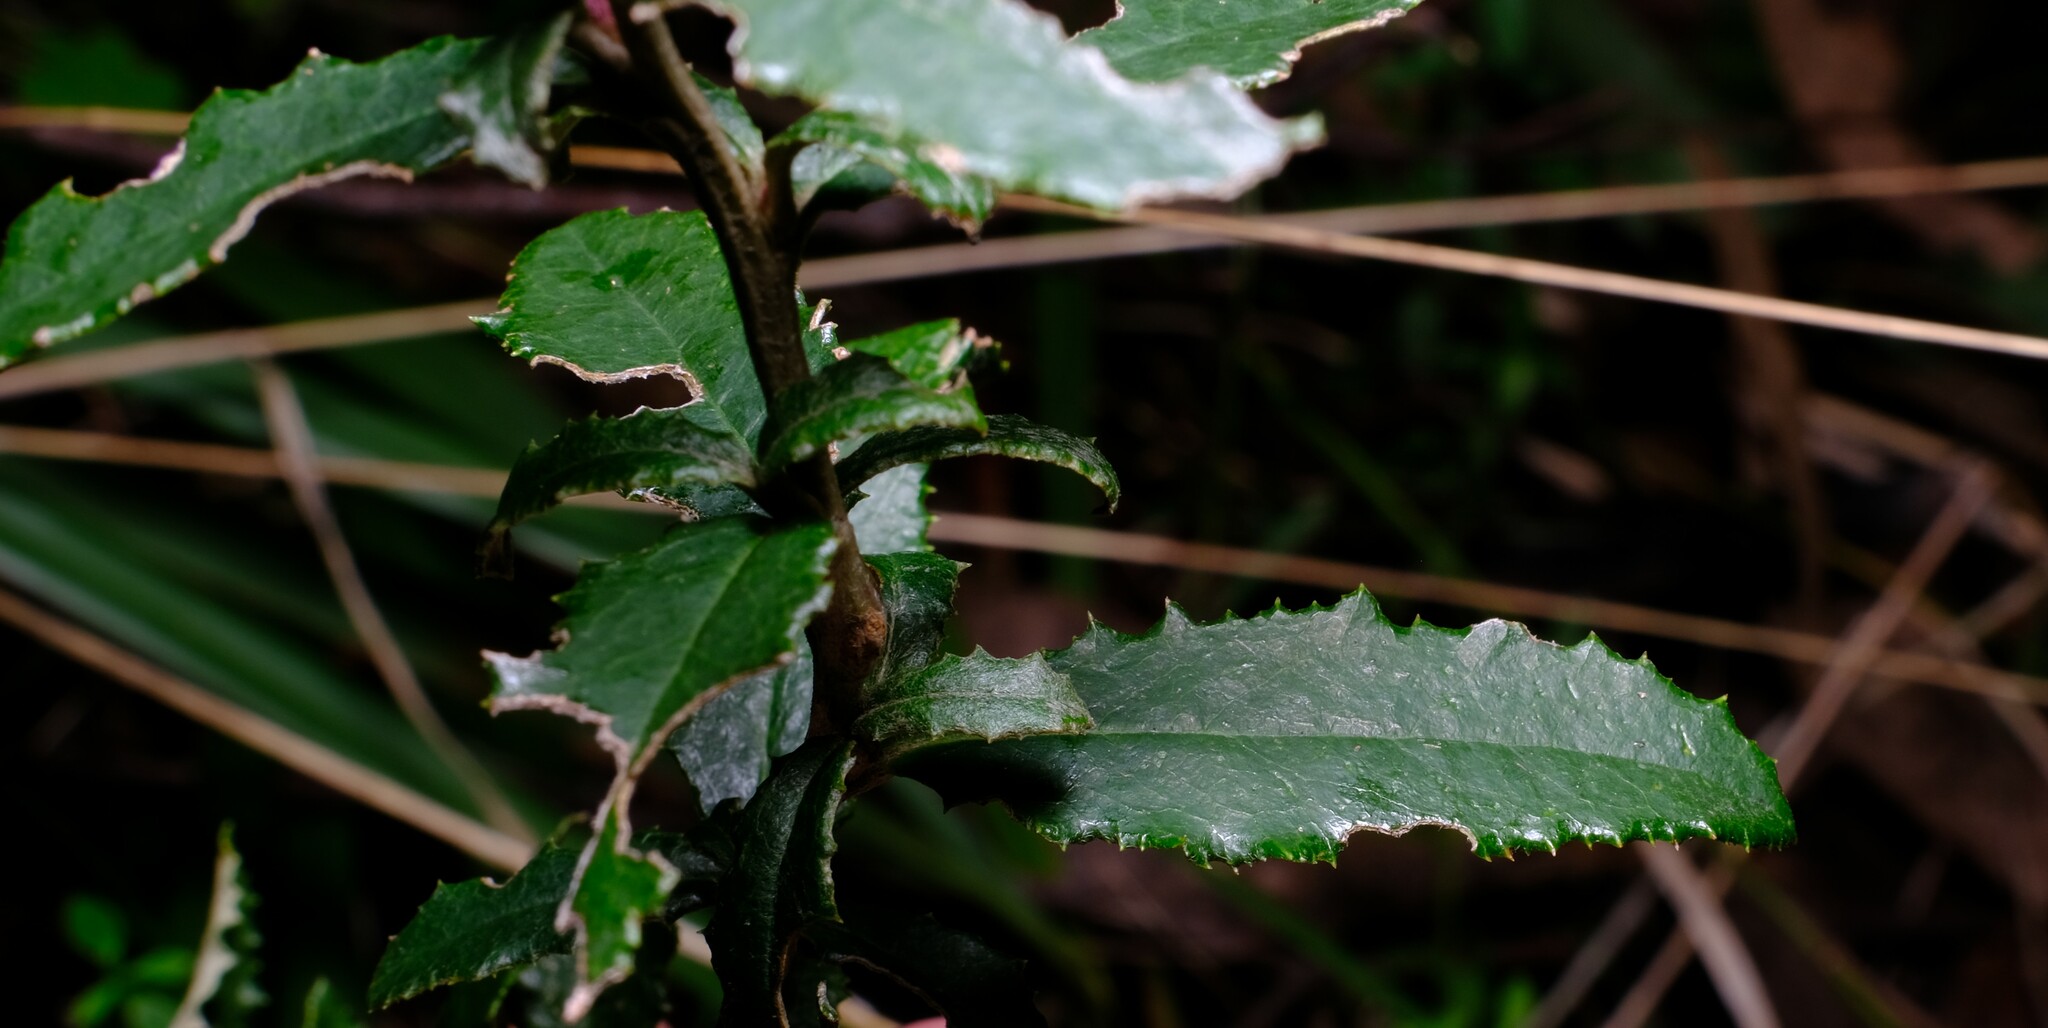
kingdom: Plantae
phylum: Tracheophyta
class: Magnoliopsida
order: Asterales
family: Asteraceae
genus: Olearia
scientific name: Olearia erubescens
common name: Moth daisybush
